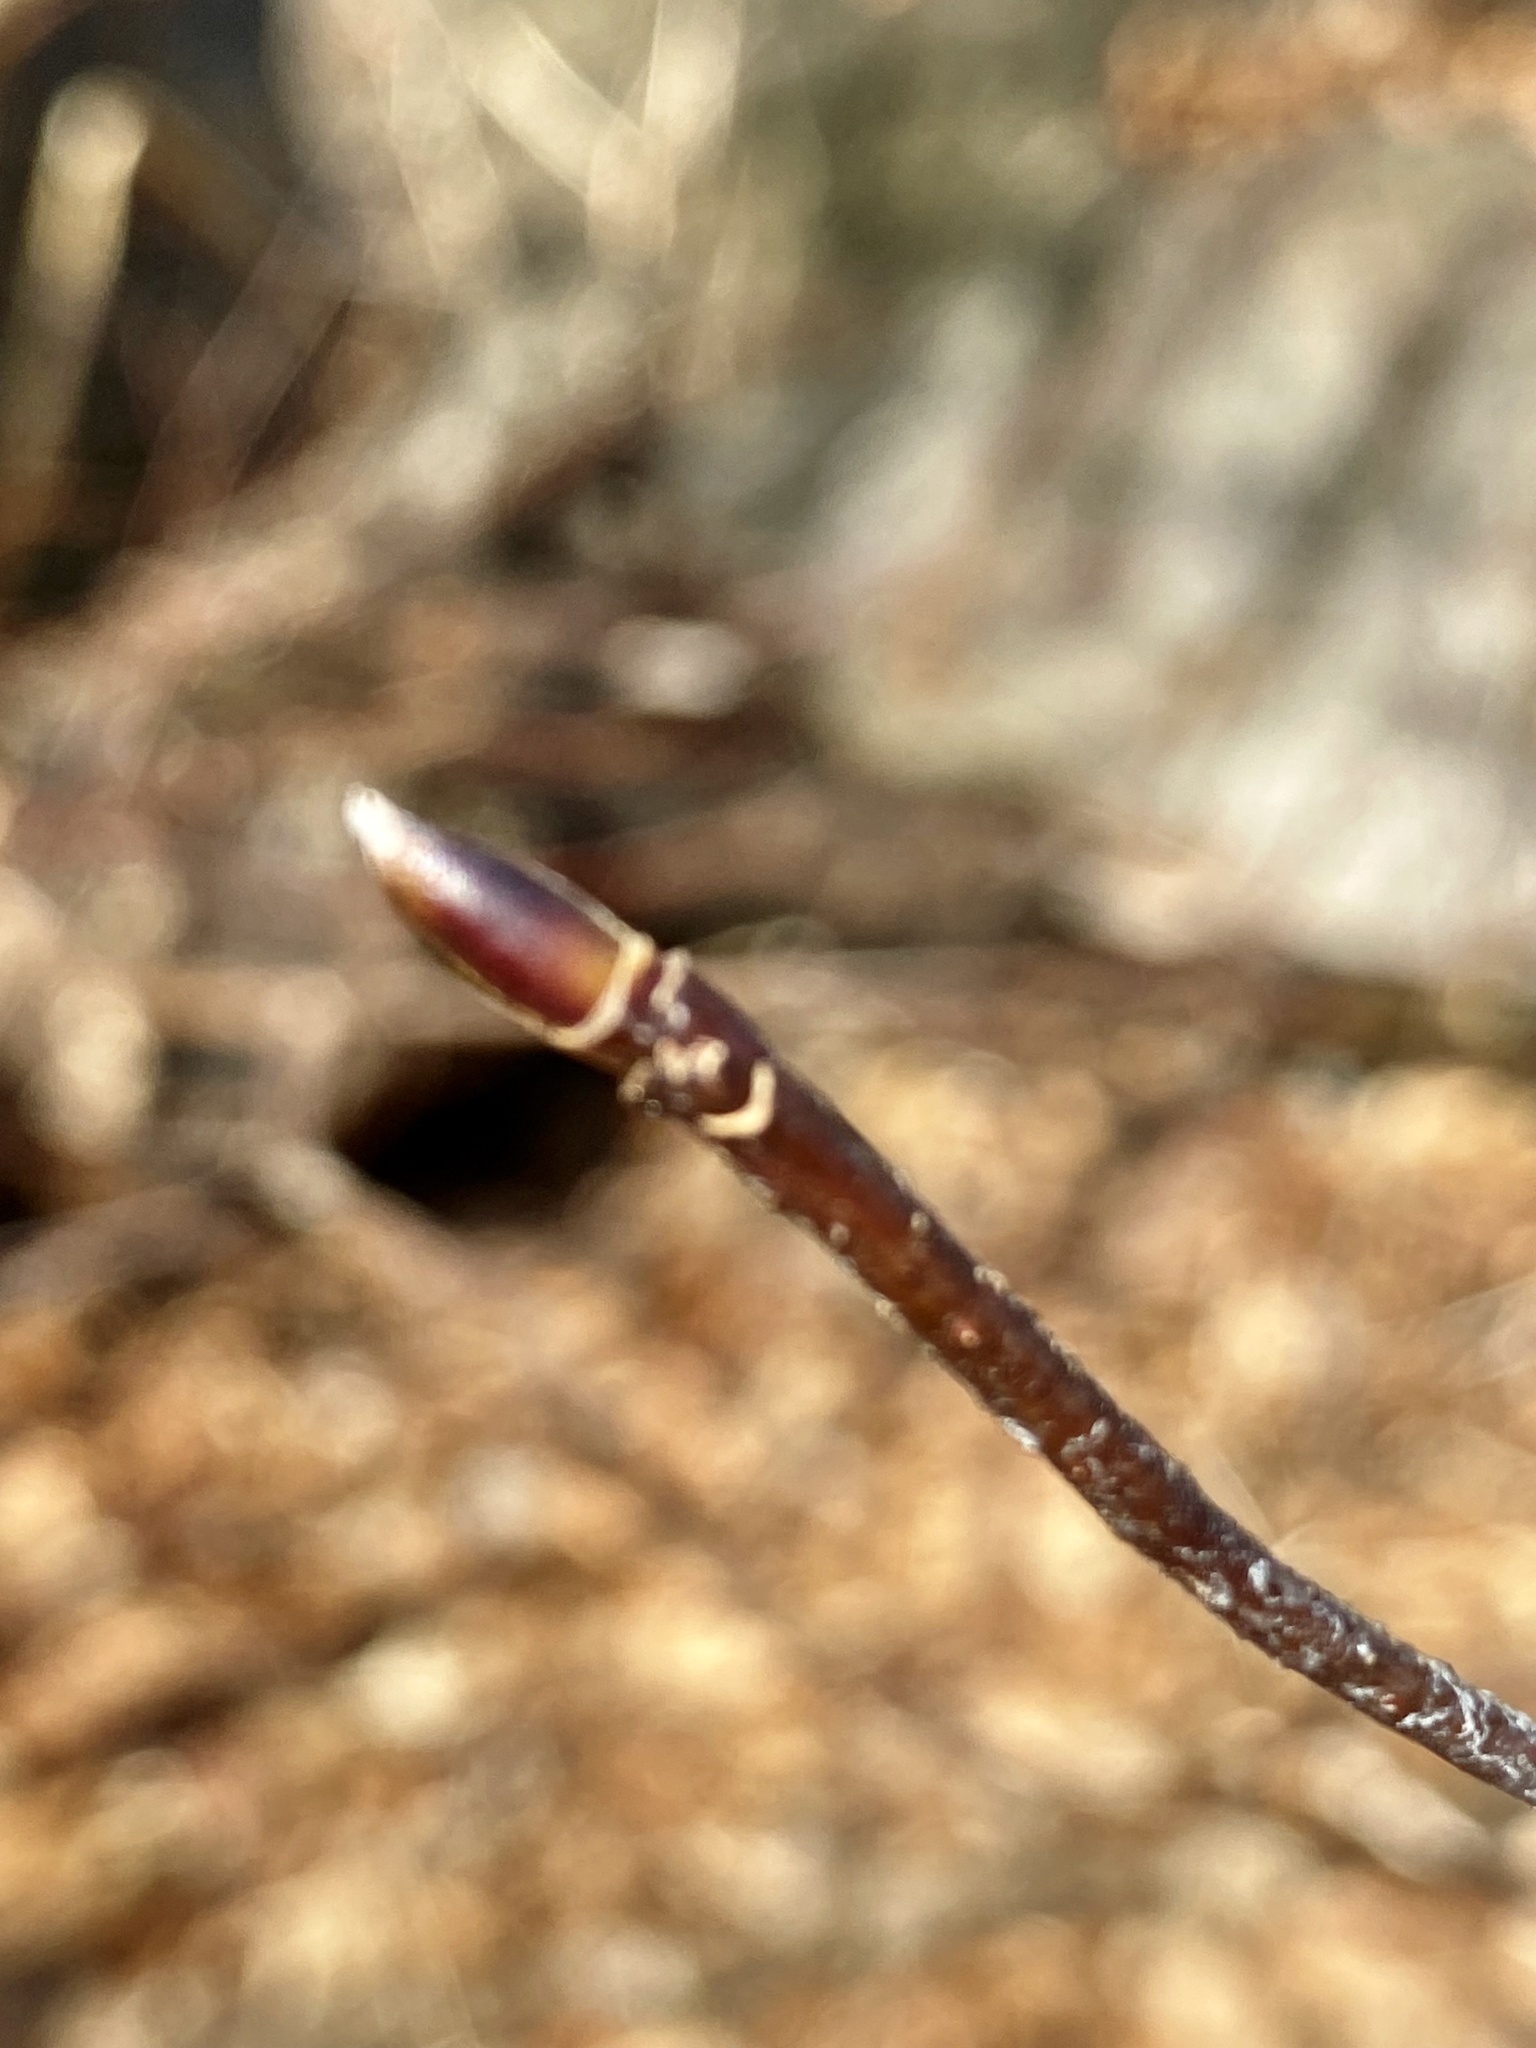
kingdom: Plantae
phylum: Tracheophyta
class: Magnoliopsida
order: Cornales
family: Cornaceae
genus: Cornus
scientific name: Cornus alternifolia
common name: Pagoda dogwood
